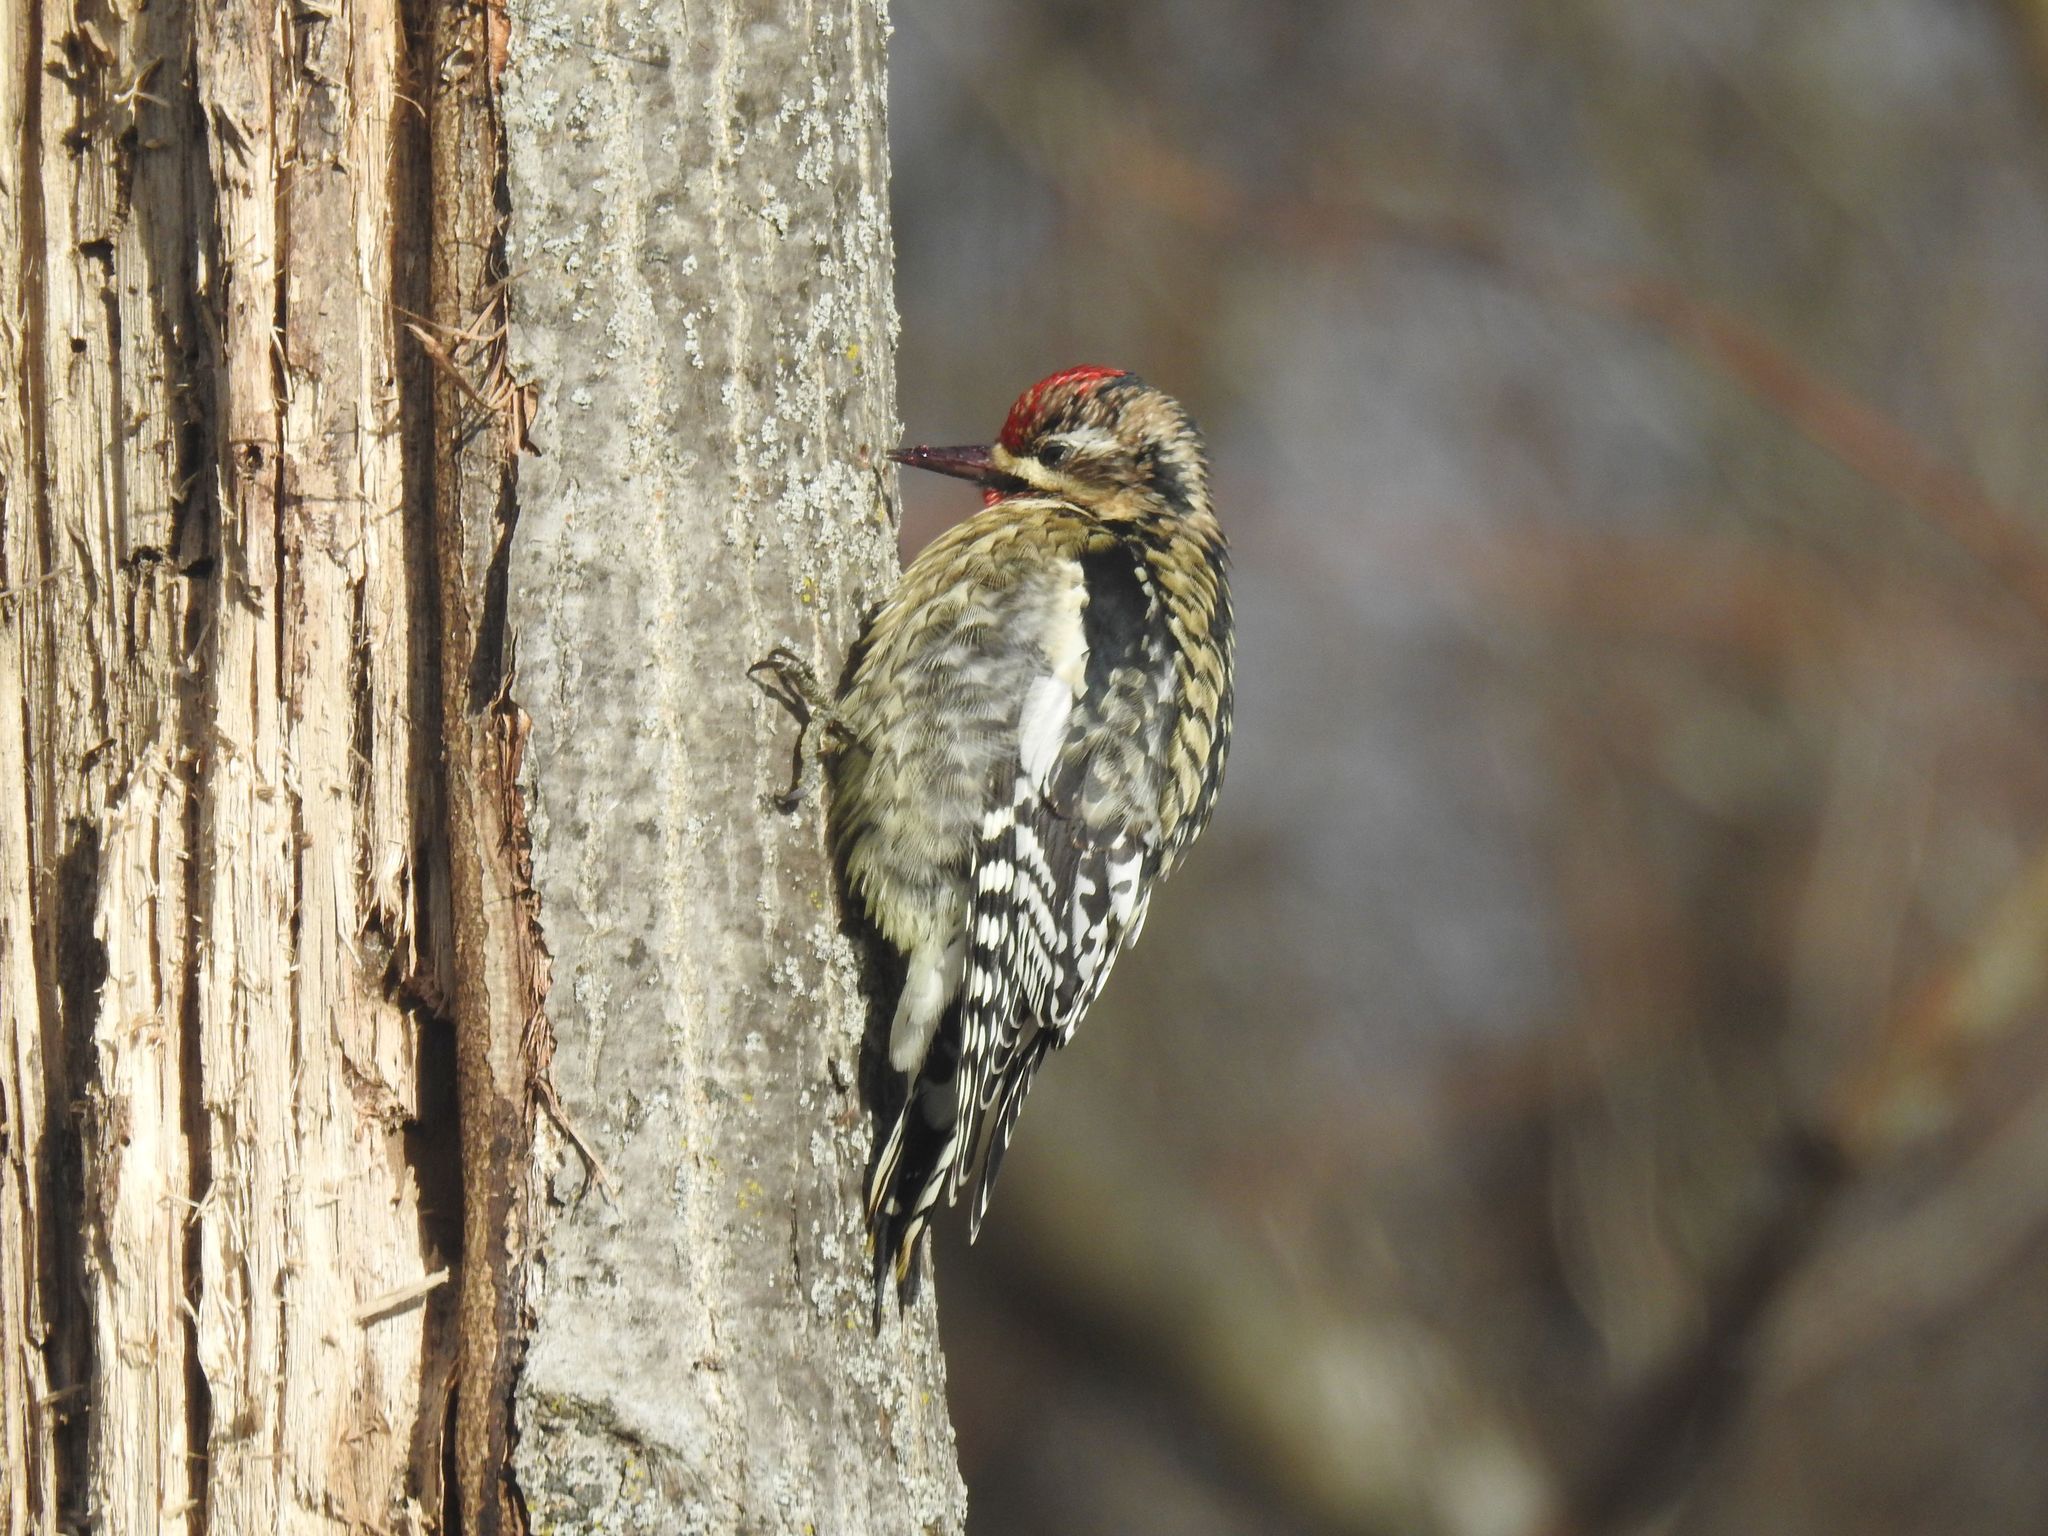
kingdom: Animalia
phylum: Chordata
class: Aves
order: Piciformes
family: Picidae
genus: Sphyrapicus
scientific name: Sphyrapicus varius
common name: Yellow-bellied sapsucker
